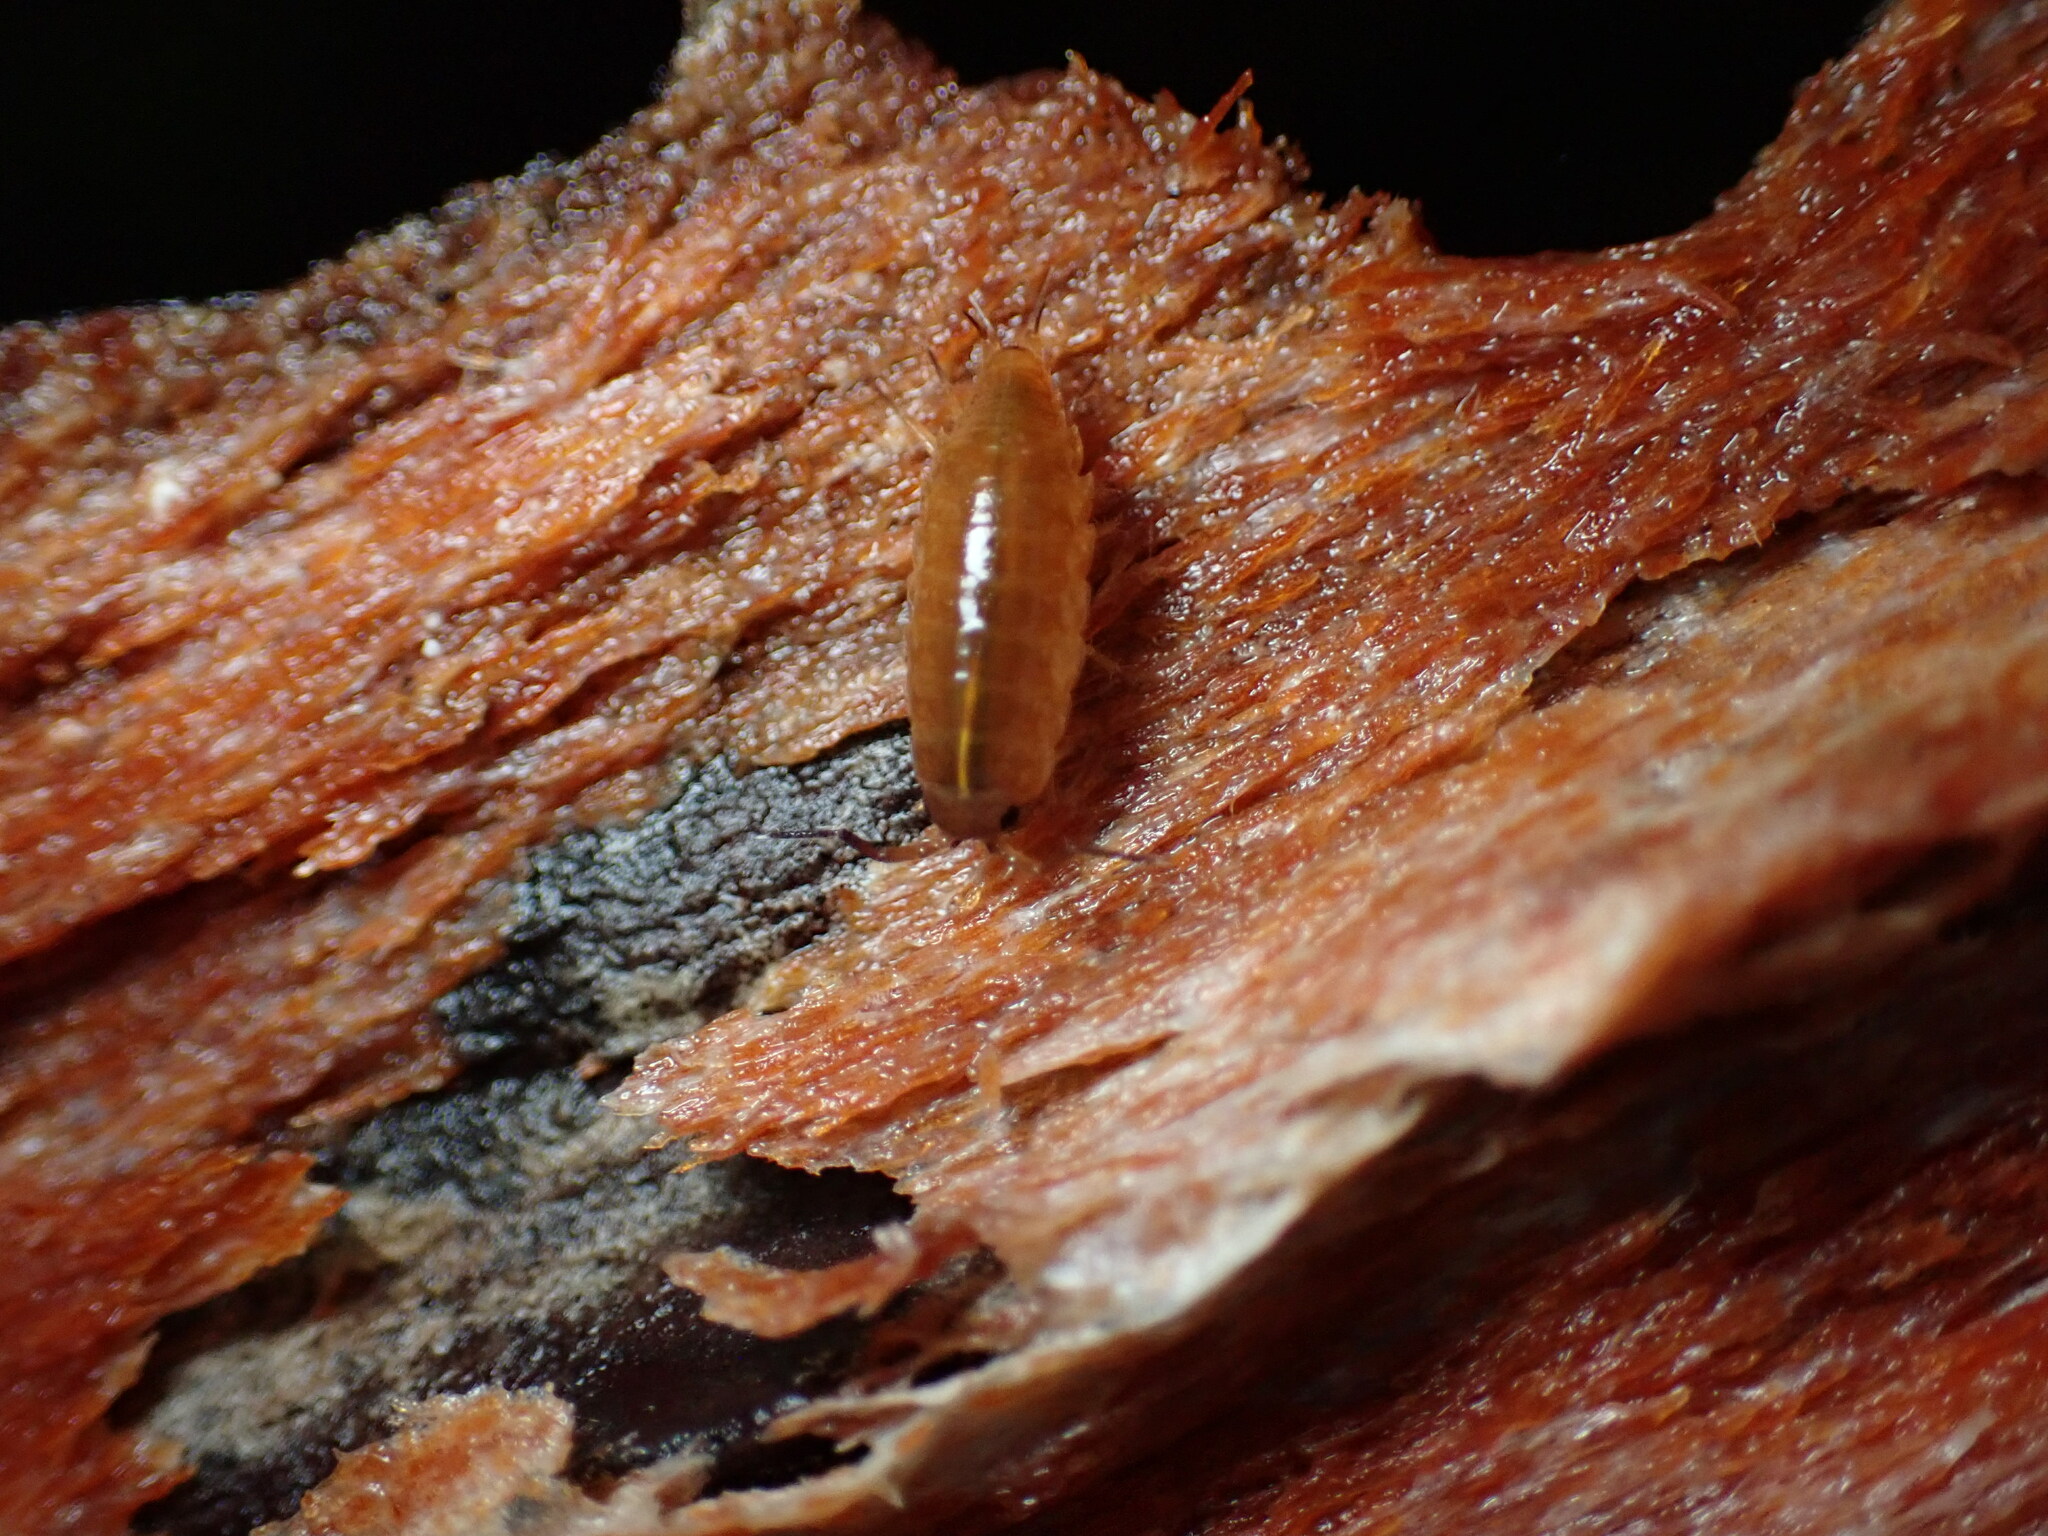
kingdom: Animalia
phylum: Arthropoda
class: Malacostraca
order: Isopoda
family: Ligiidae
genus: Ligidium
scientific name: Ligidium gracile
